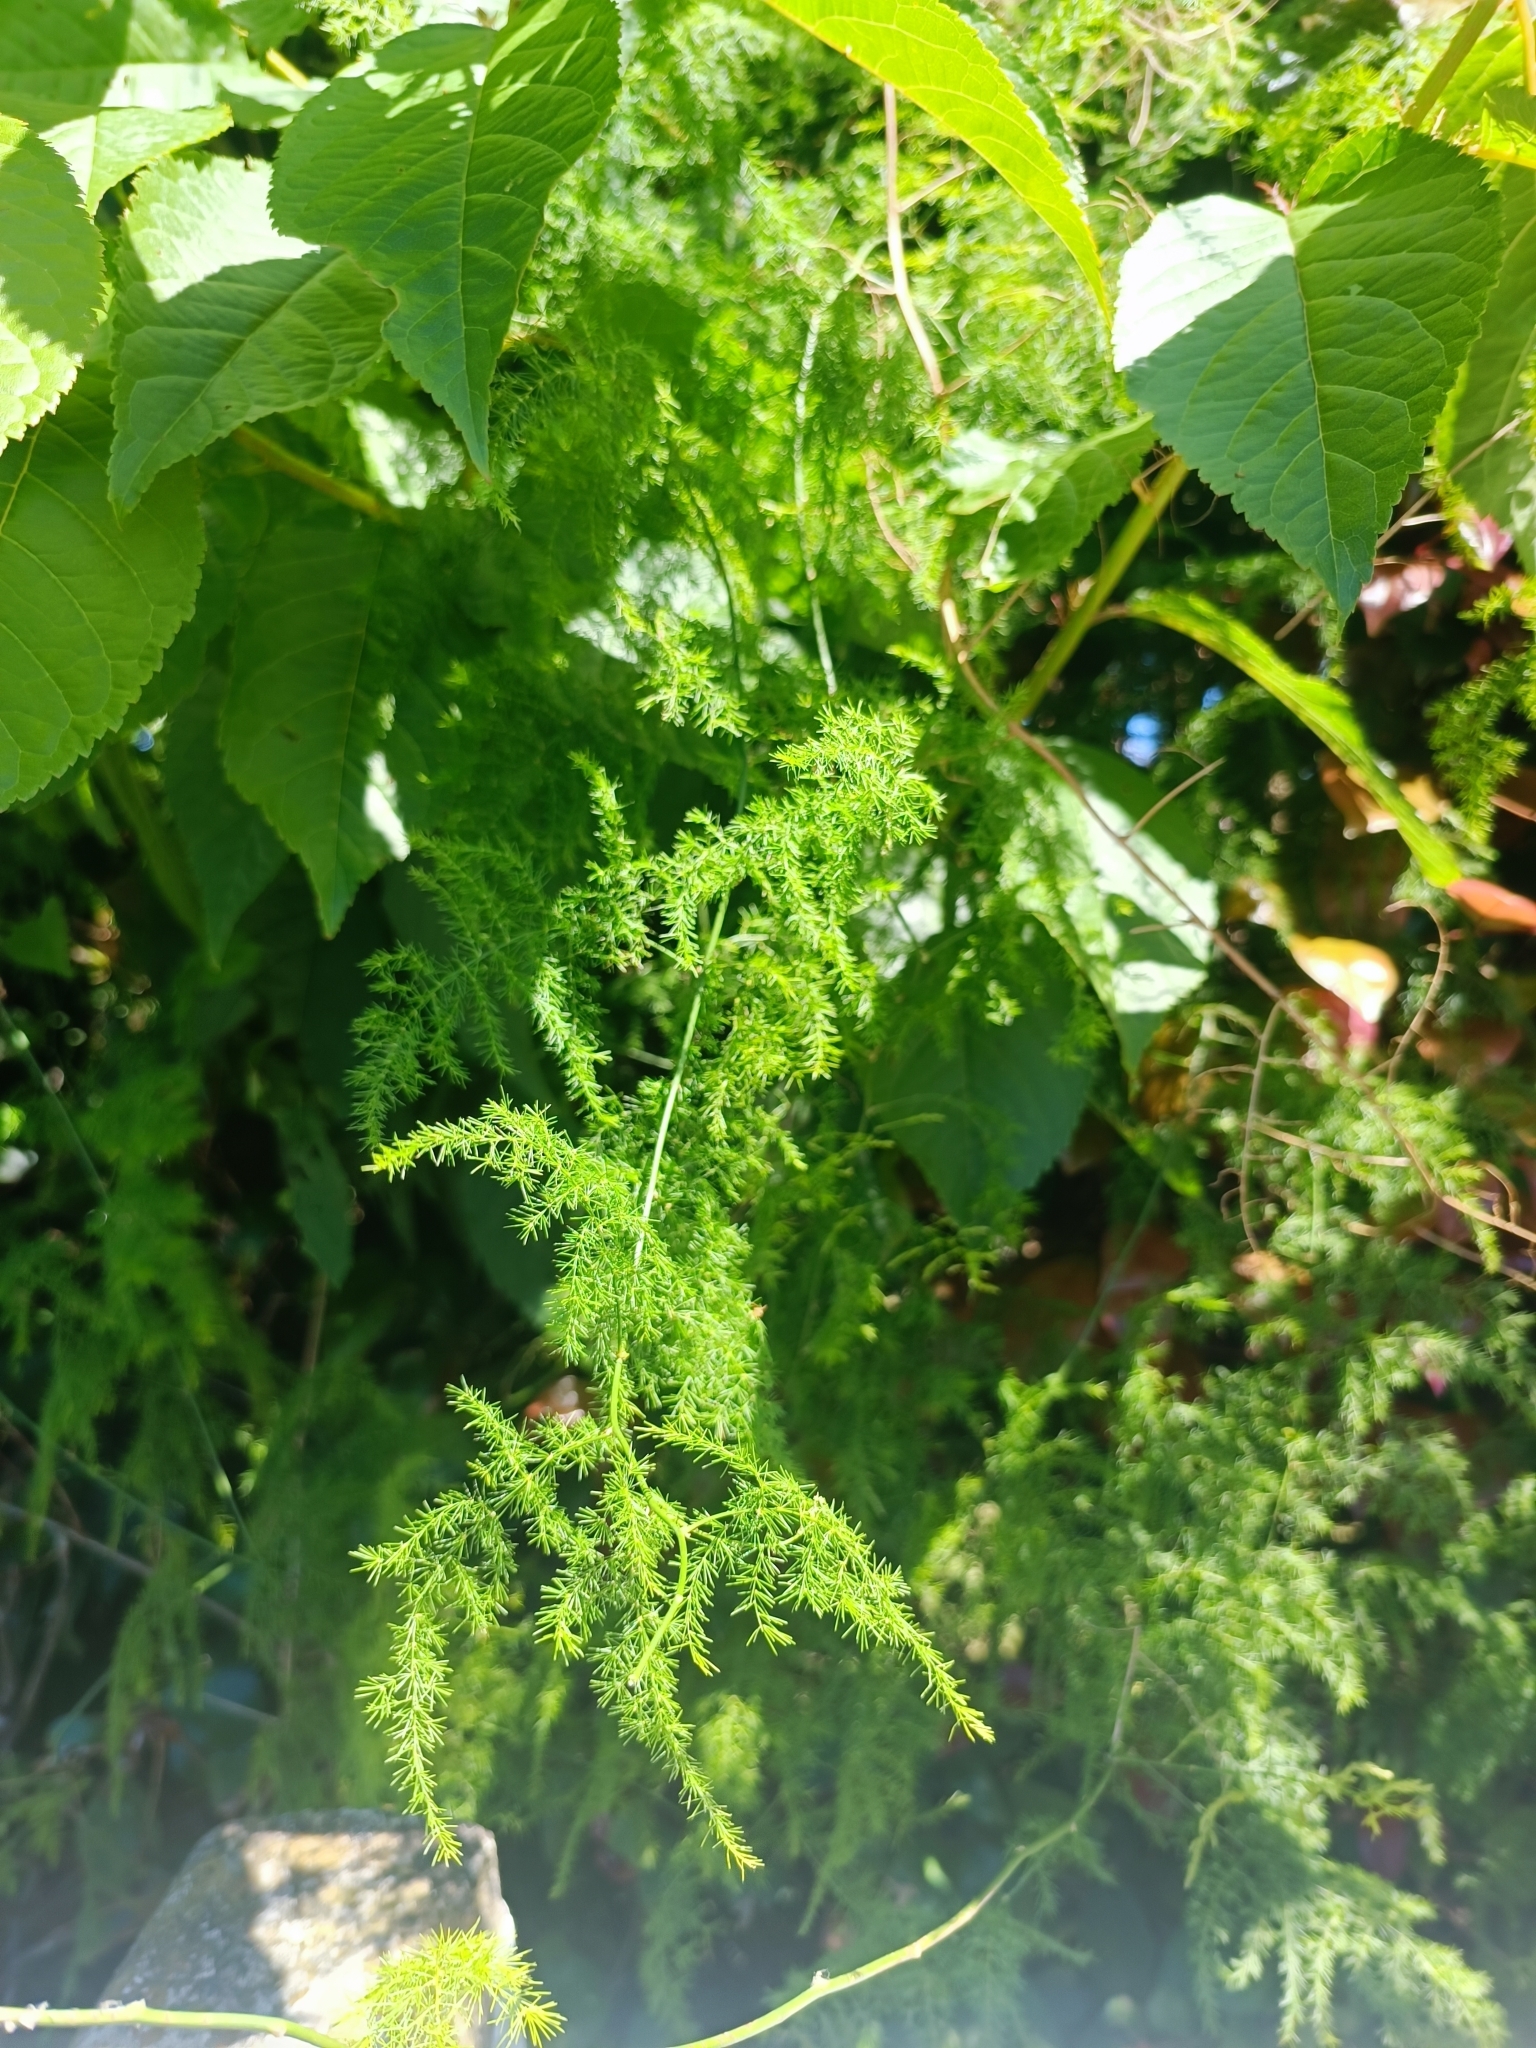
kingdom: Plantae
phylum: Tracheophyta
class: Liliopsida
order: Asparagales
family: Asparagaceae
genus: Asparagus
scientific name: Asparagus setaceus
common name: Common asparagus fern
